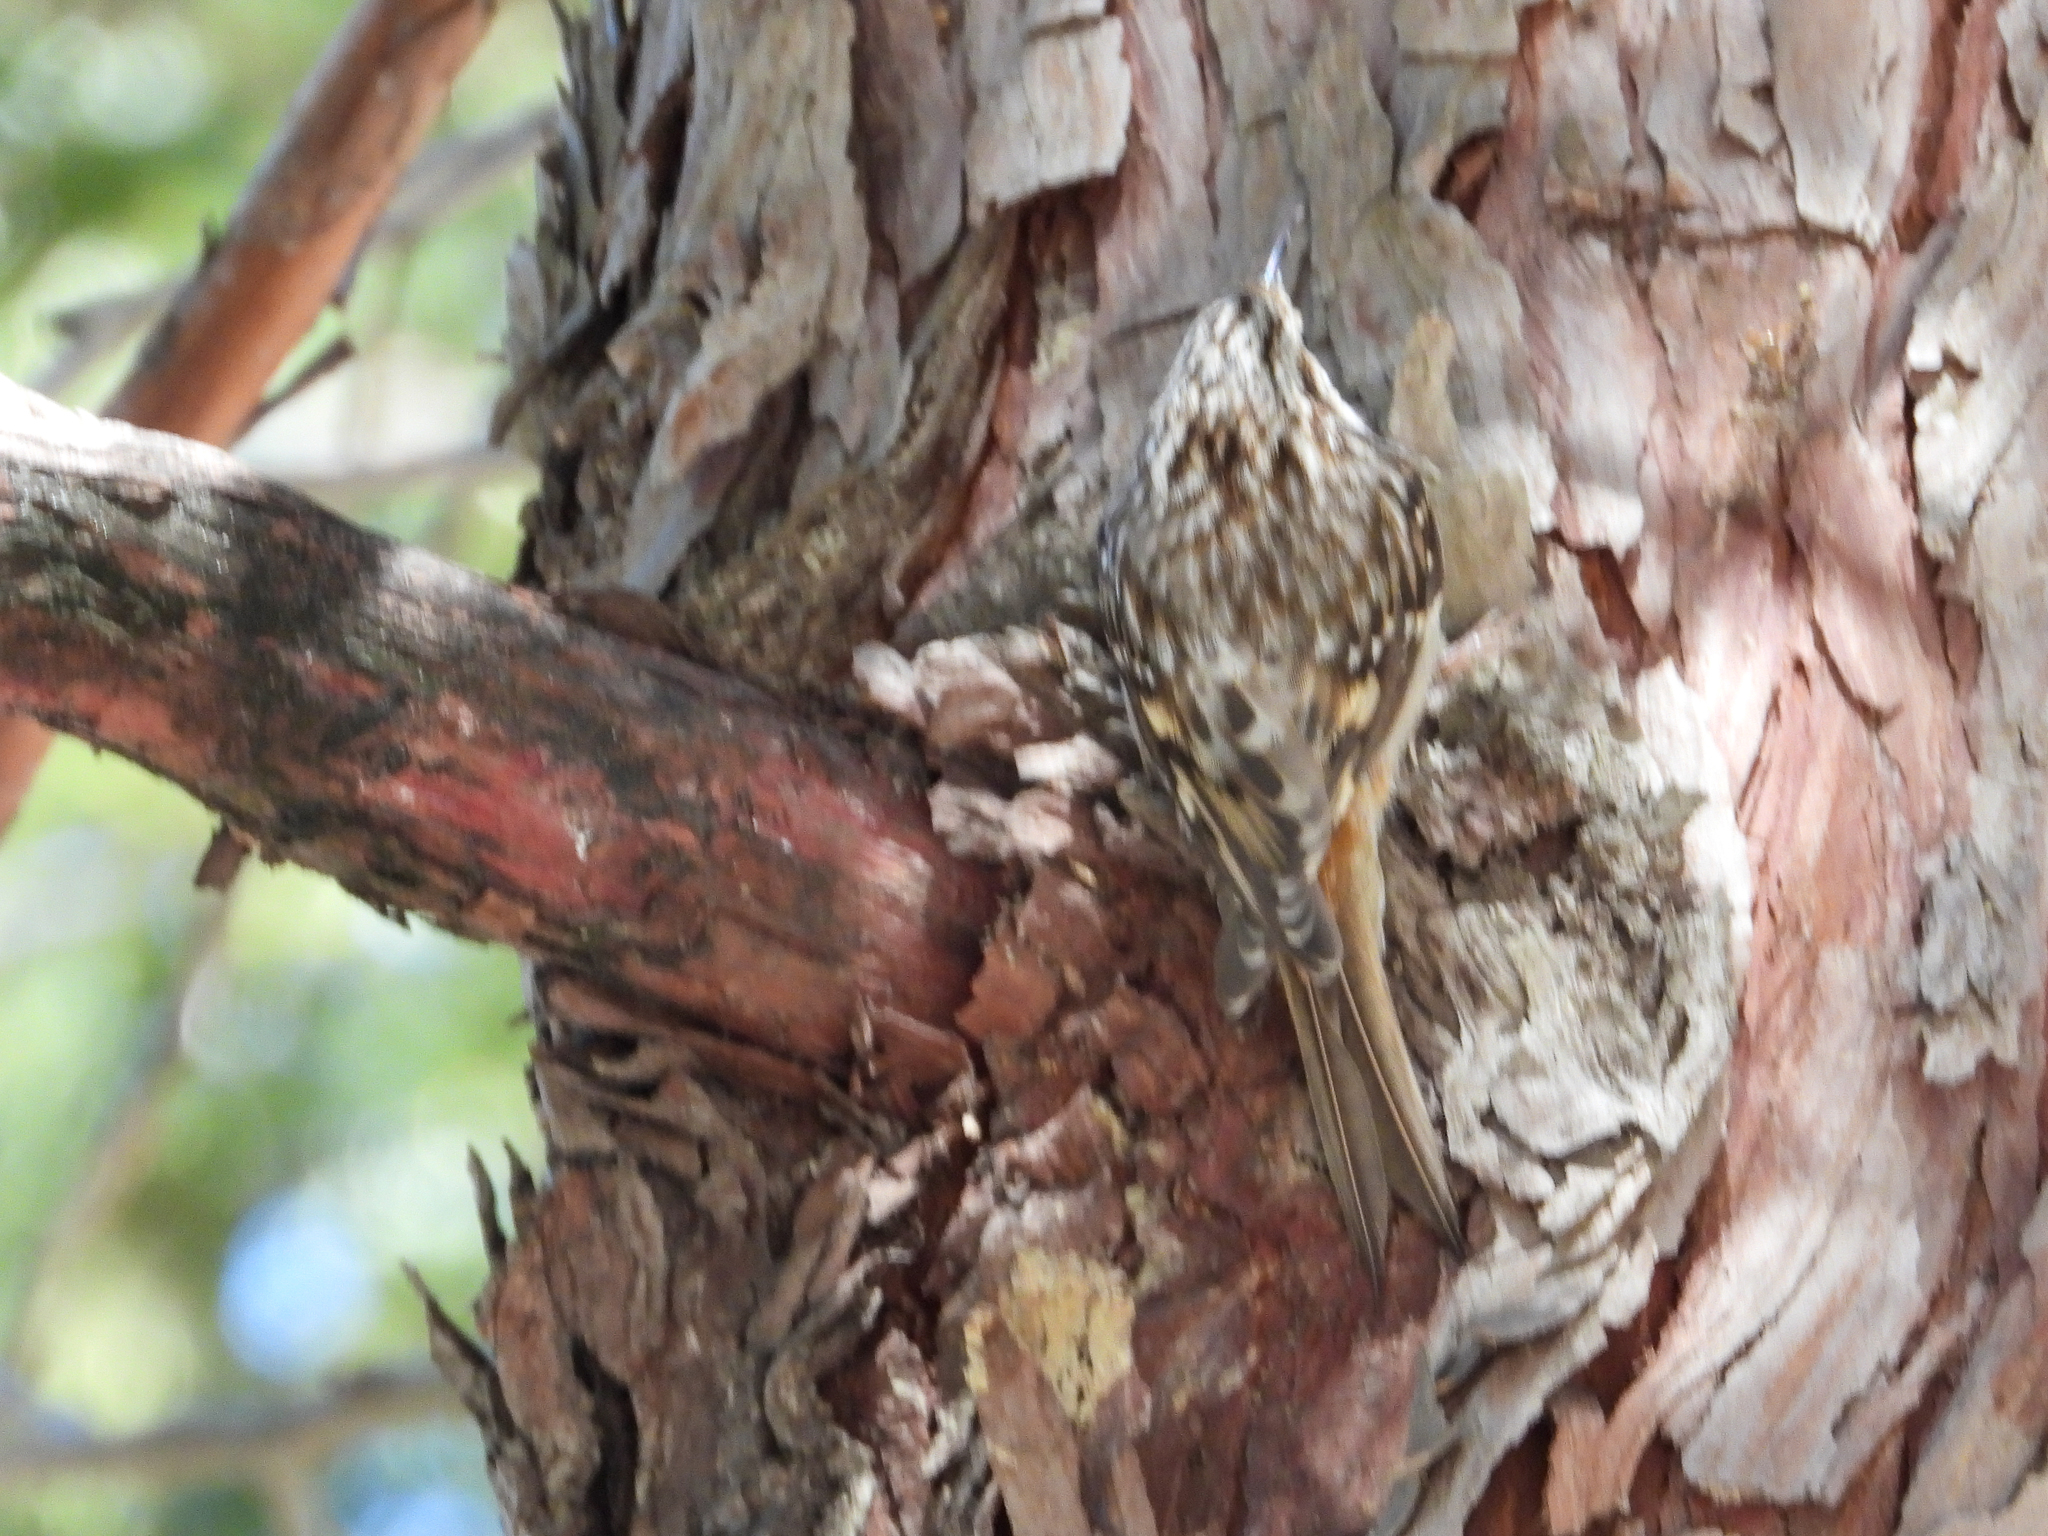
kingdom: Animalia
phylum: Chordata
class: Aves
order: Passeriformes
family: Certhiidae
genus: Certhia
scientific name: Certhia americana
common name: Brown creeper
